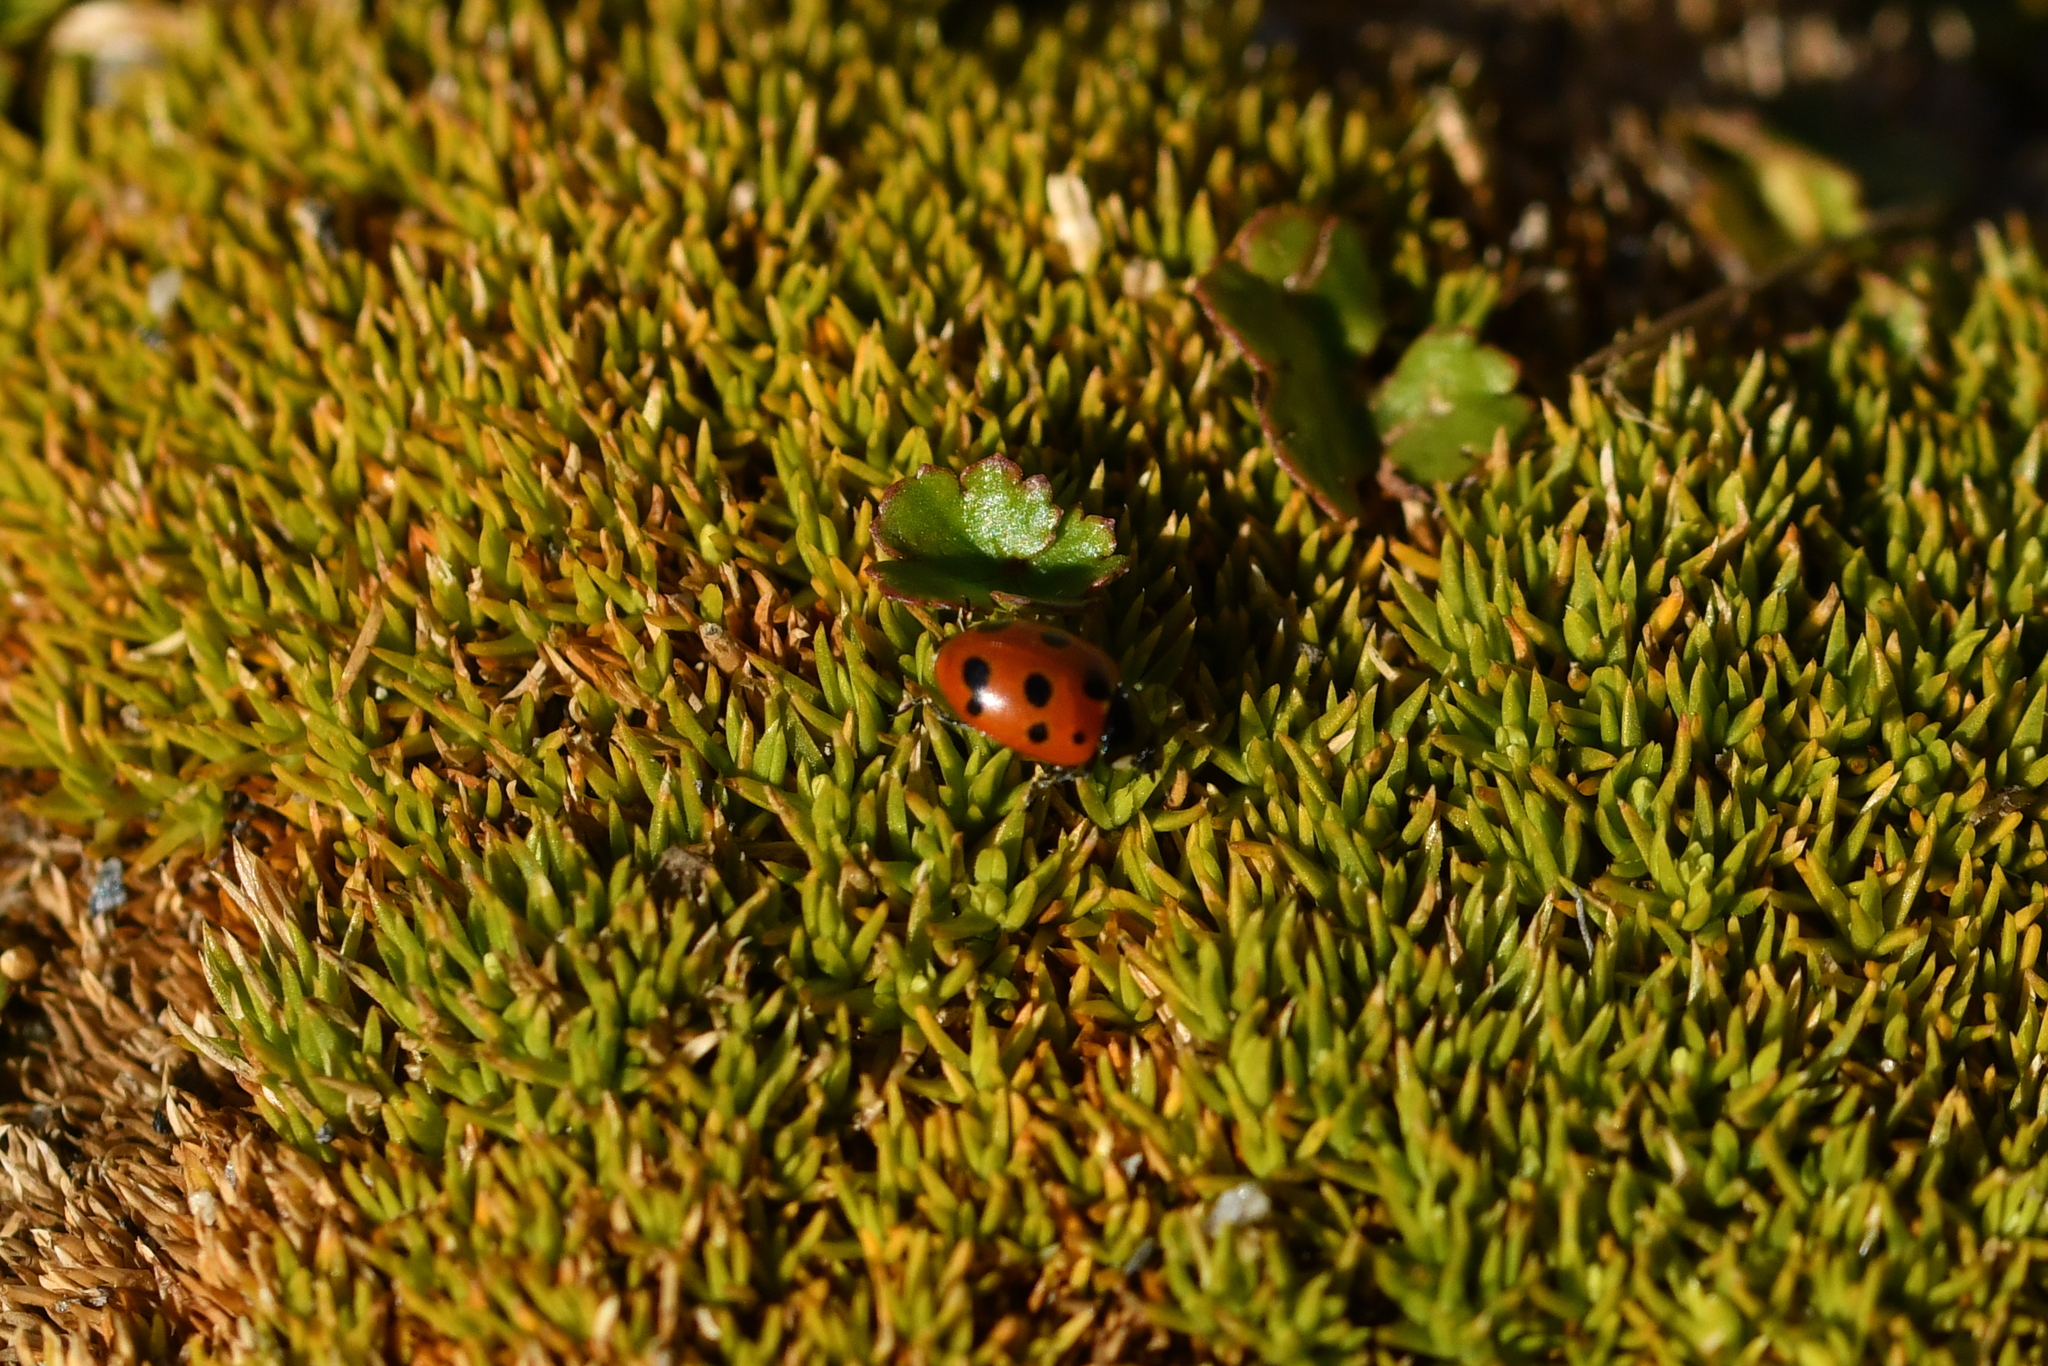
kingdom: Animalia
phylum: Arthropoda
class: Insecta
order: Coleoptera
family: Coccinellidae
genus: Coccinella
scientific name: Coccinella undecimpunctata
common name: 11-spot ladybird
